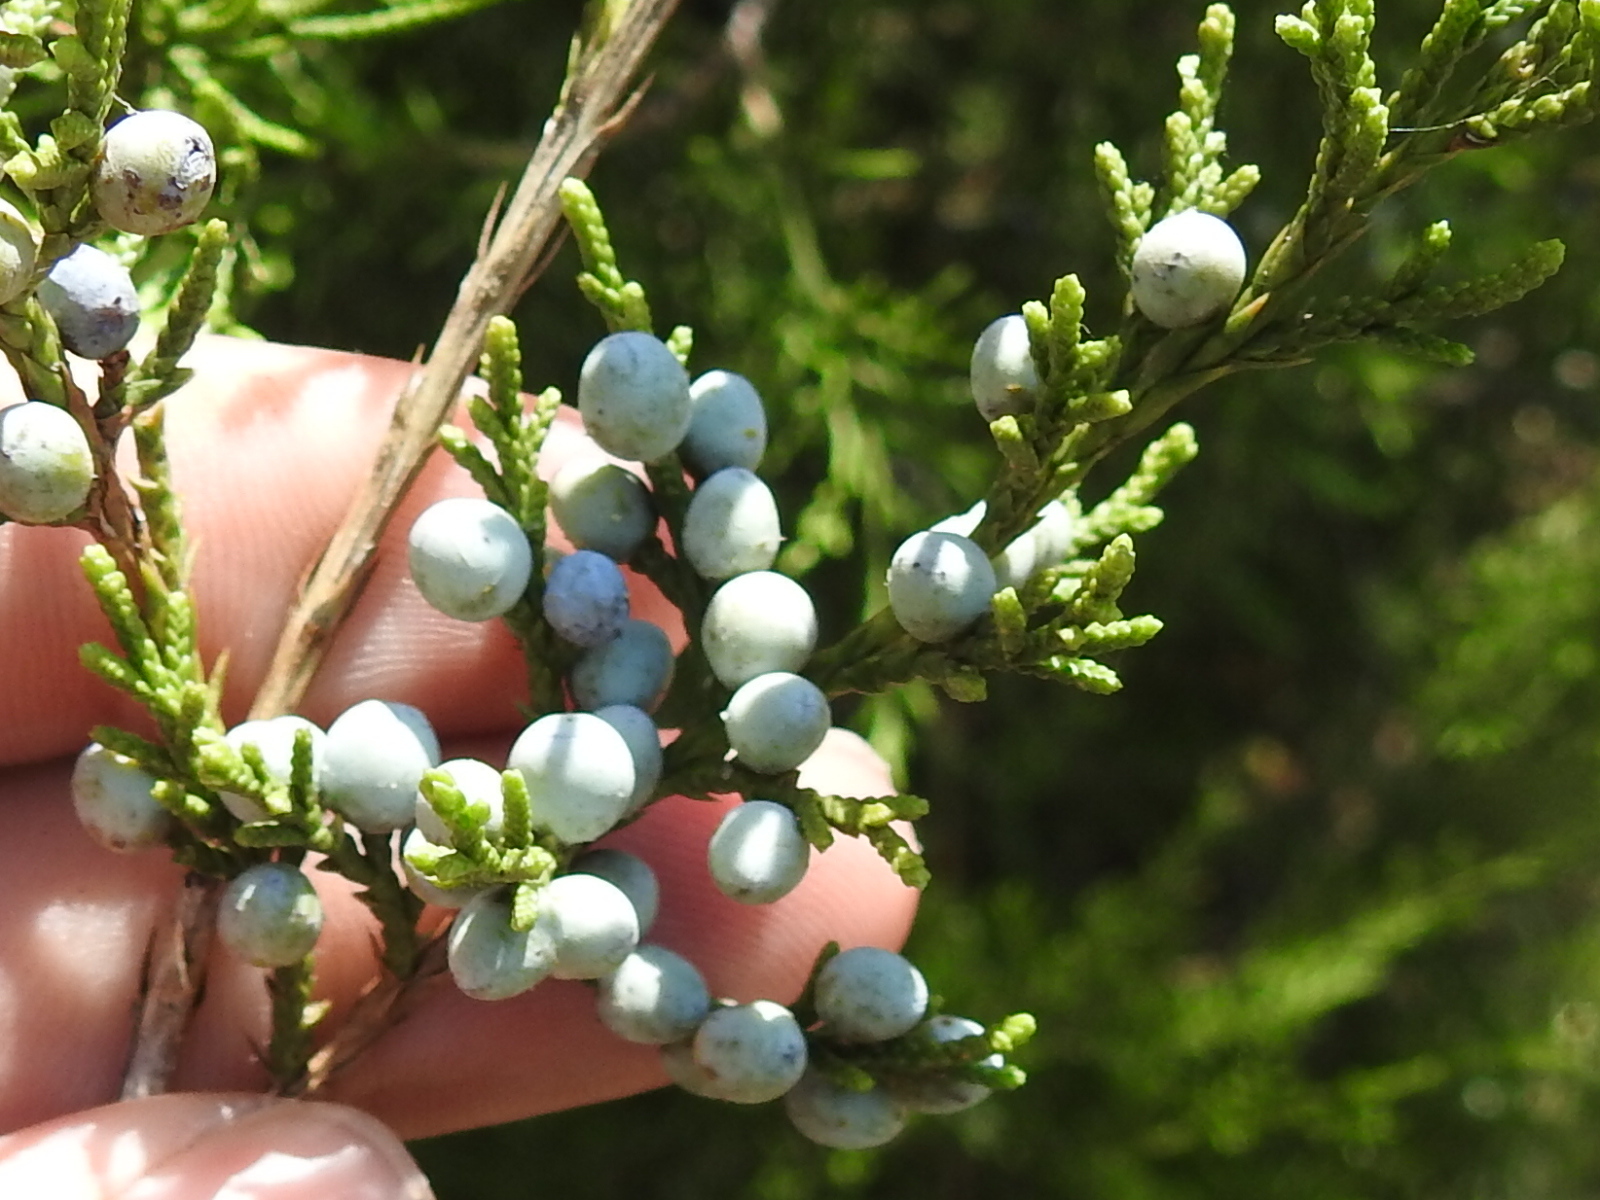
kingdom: Plantae
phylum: Tracheophyta
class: Pinopsida
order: Pinales
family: Cupressaceae
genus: Juniperus
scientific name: Juniperus virginiana
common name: Red juniper
